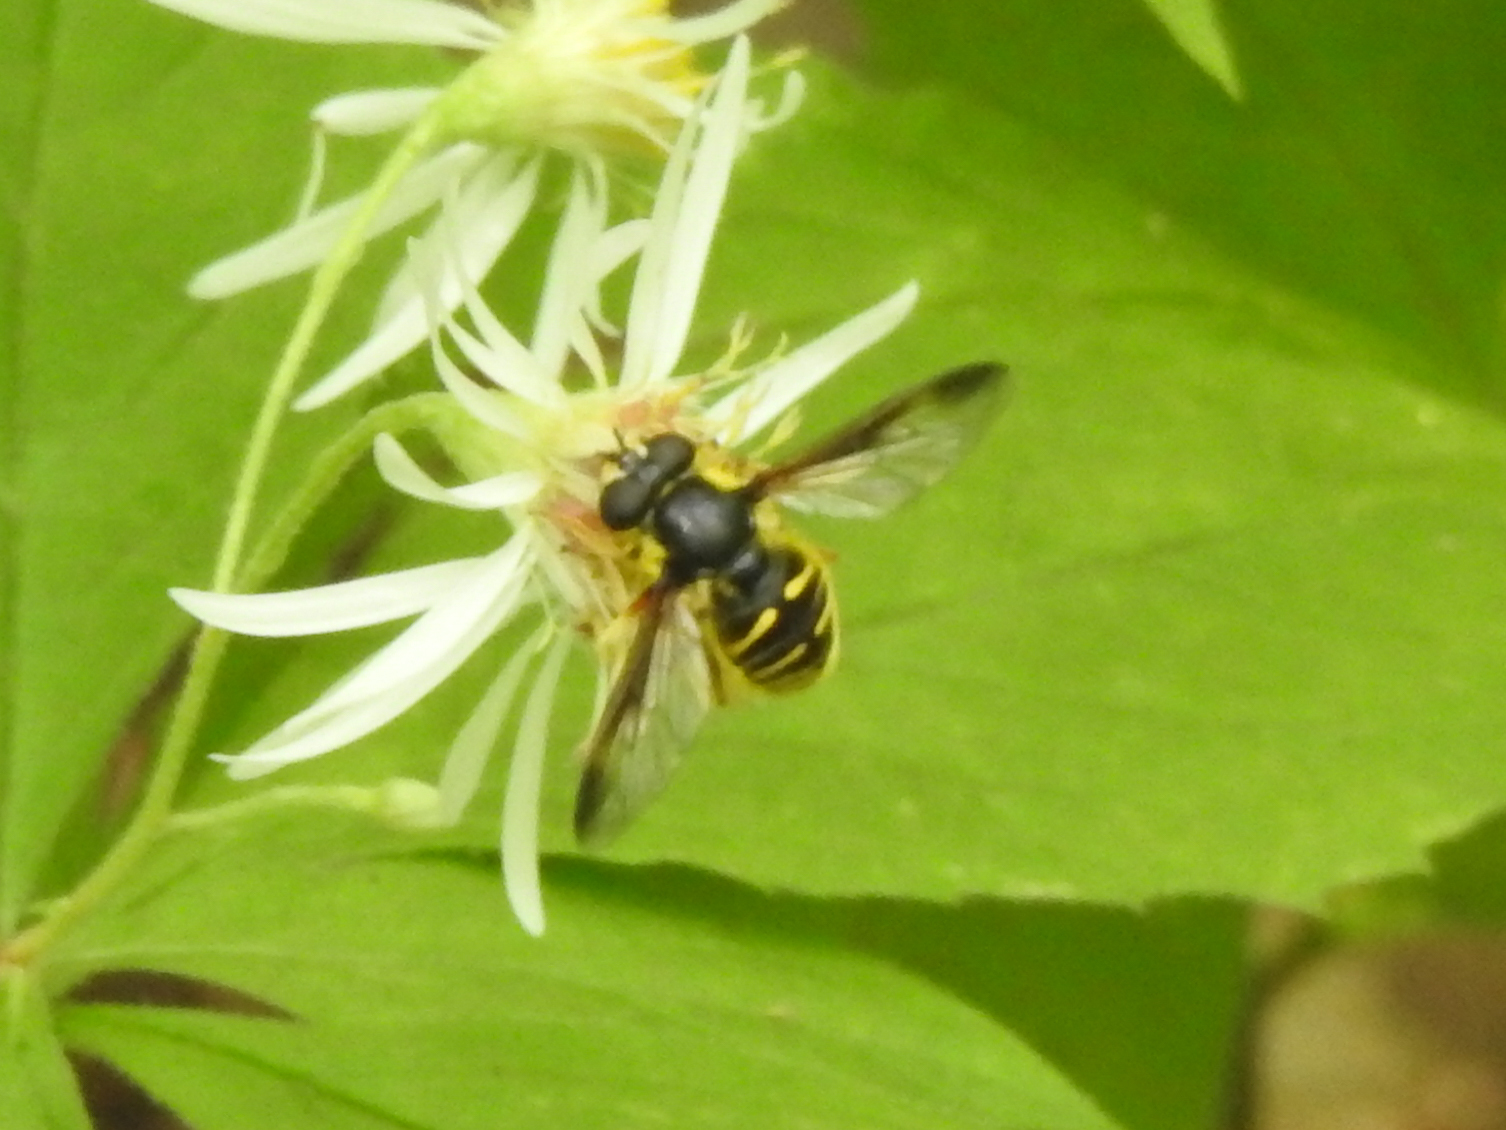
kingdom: Animalia
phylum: Arthropoda
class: Insecta
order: Diptera
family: Syrphidae
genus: Sericomyia
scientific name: Sericomyia chrysotoxoides
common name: Oblique-banded pond fly
